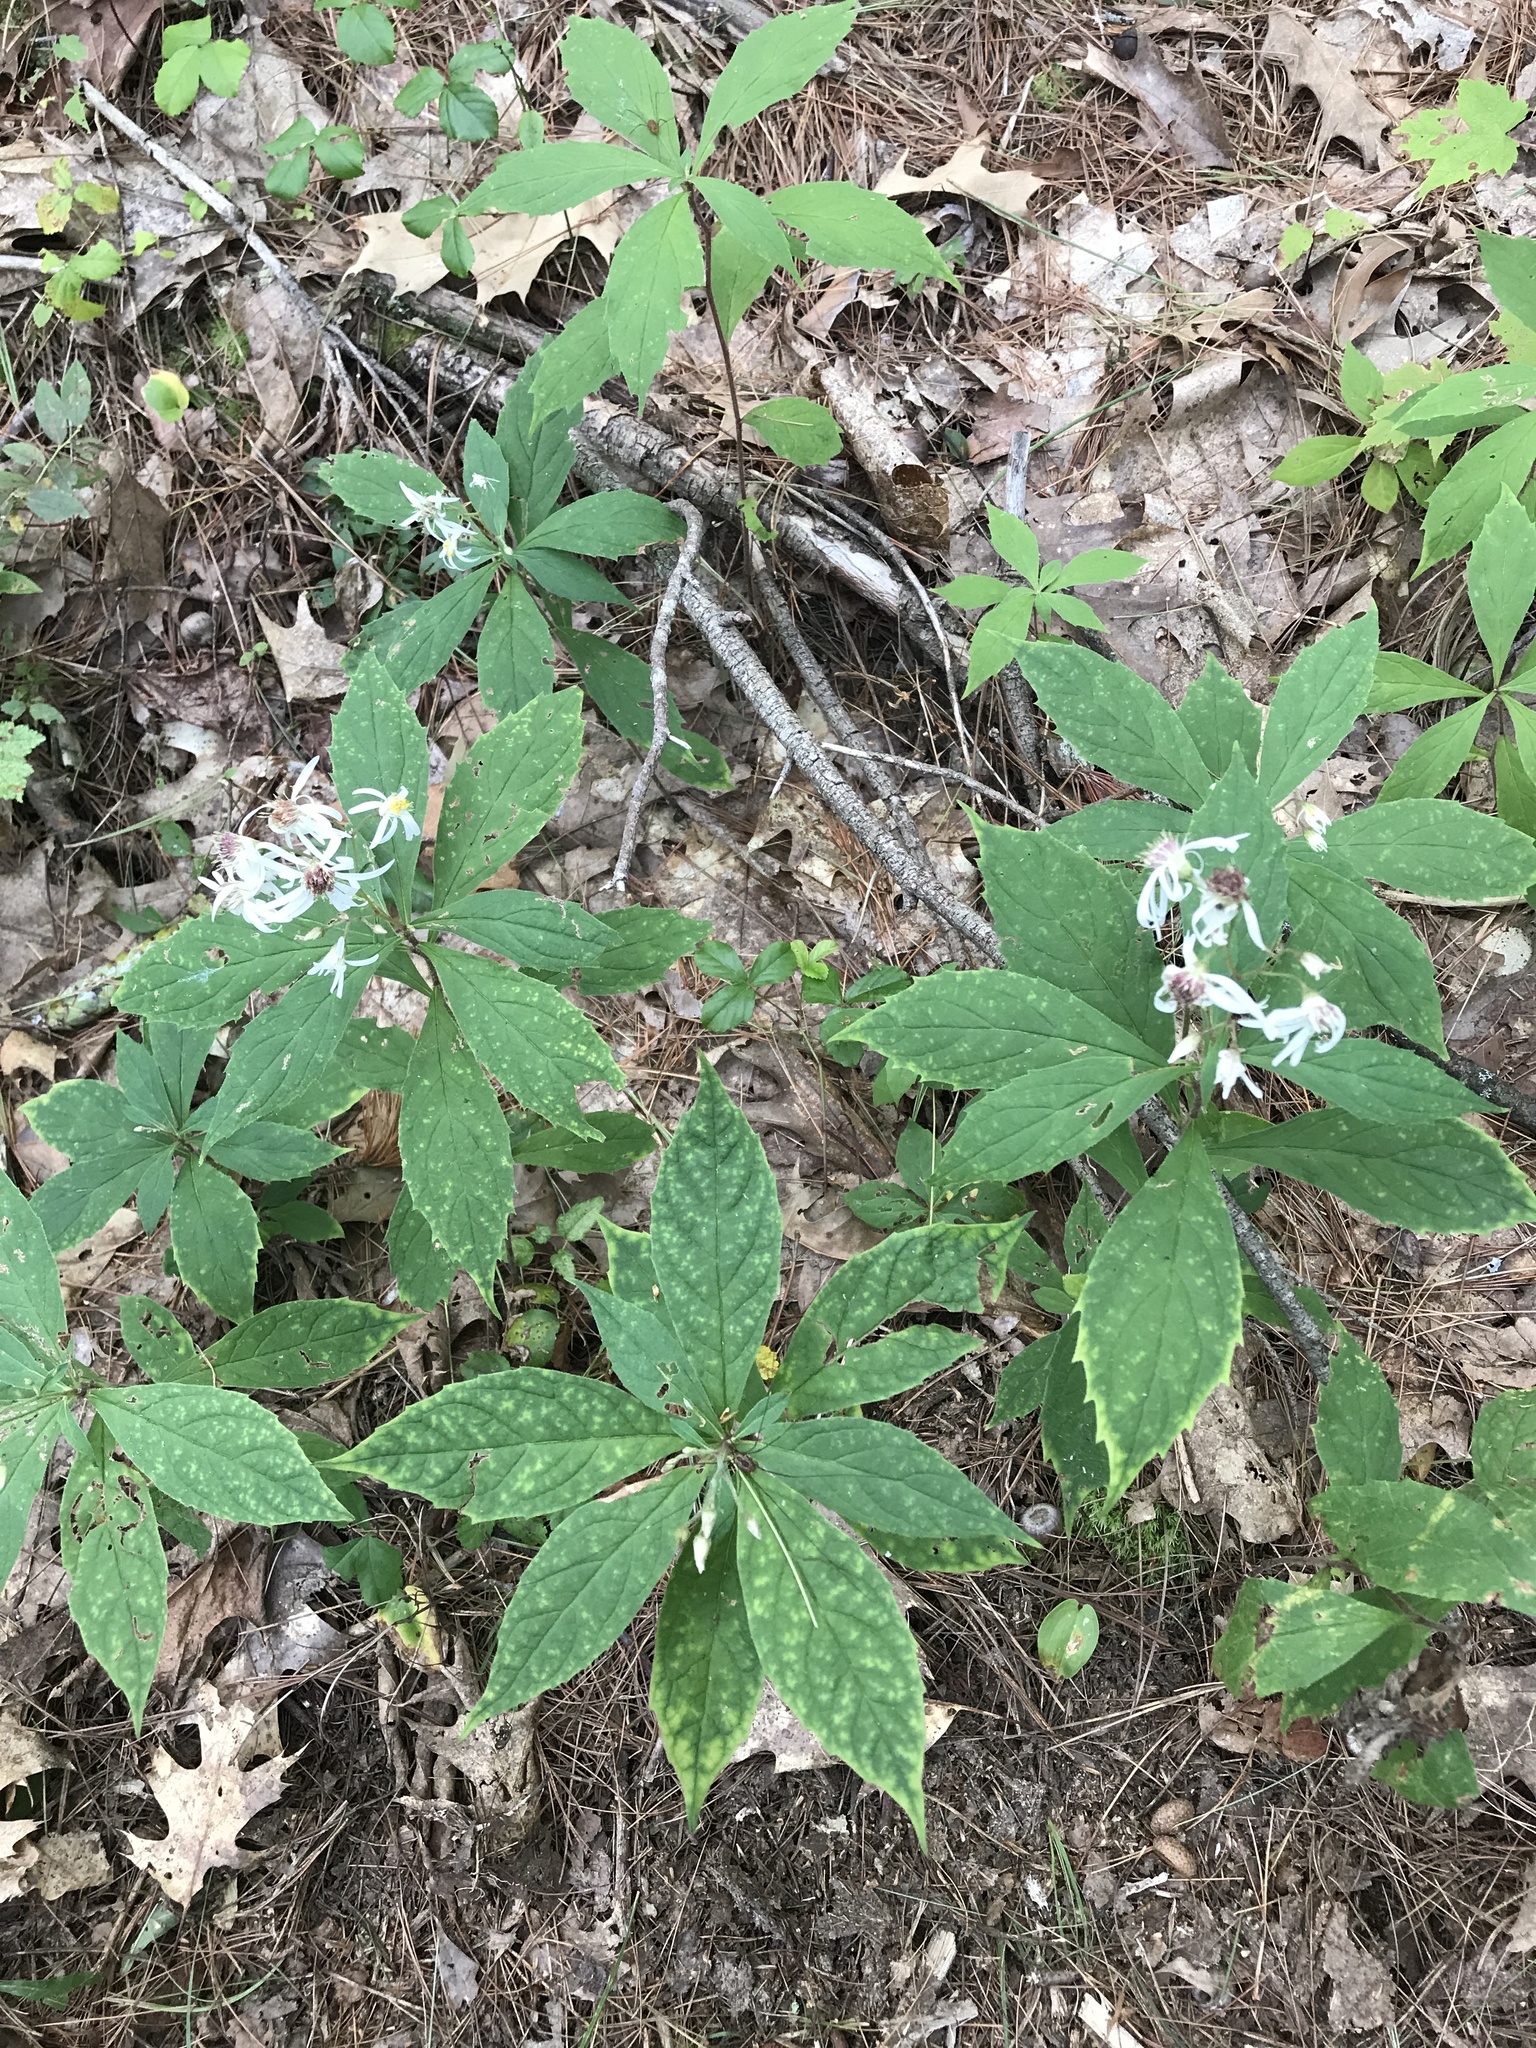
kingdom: Plantae
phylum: Tracheophyta
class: Magnoliopsida
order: Asterales
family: Asteraceae
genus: Oclemena
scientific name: Oclemena acuminata
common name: Mountain aster
